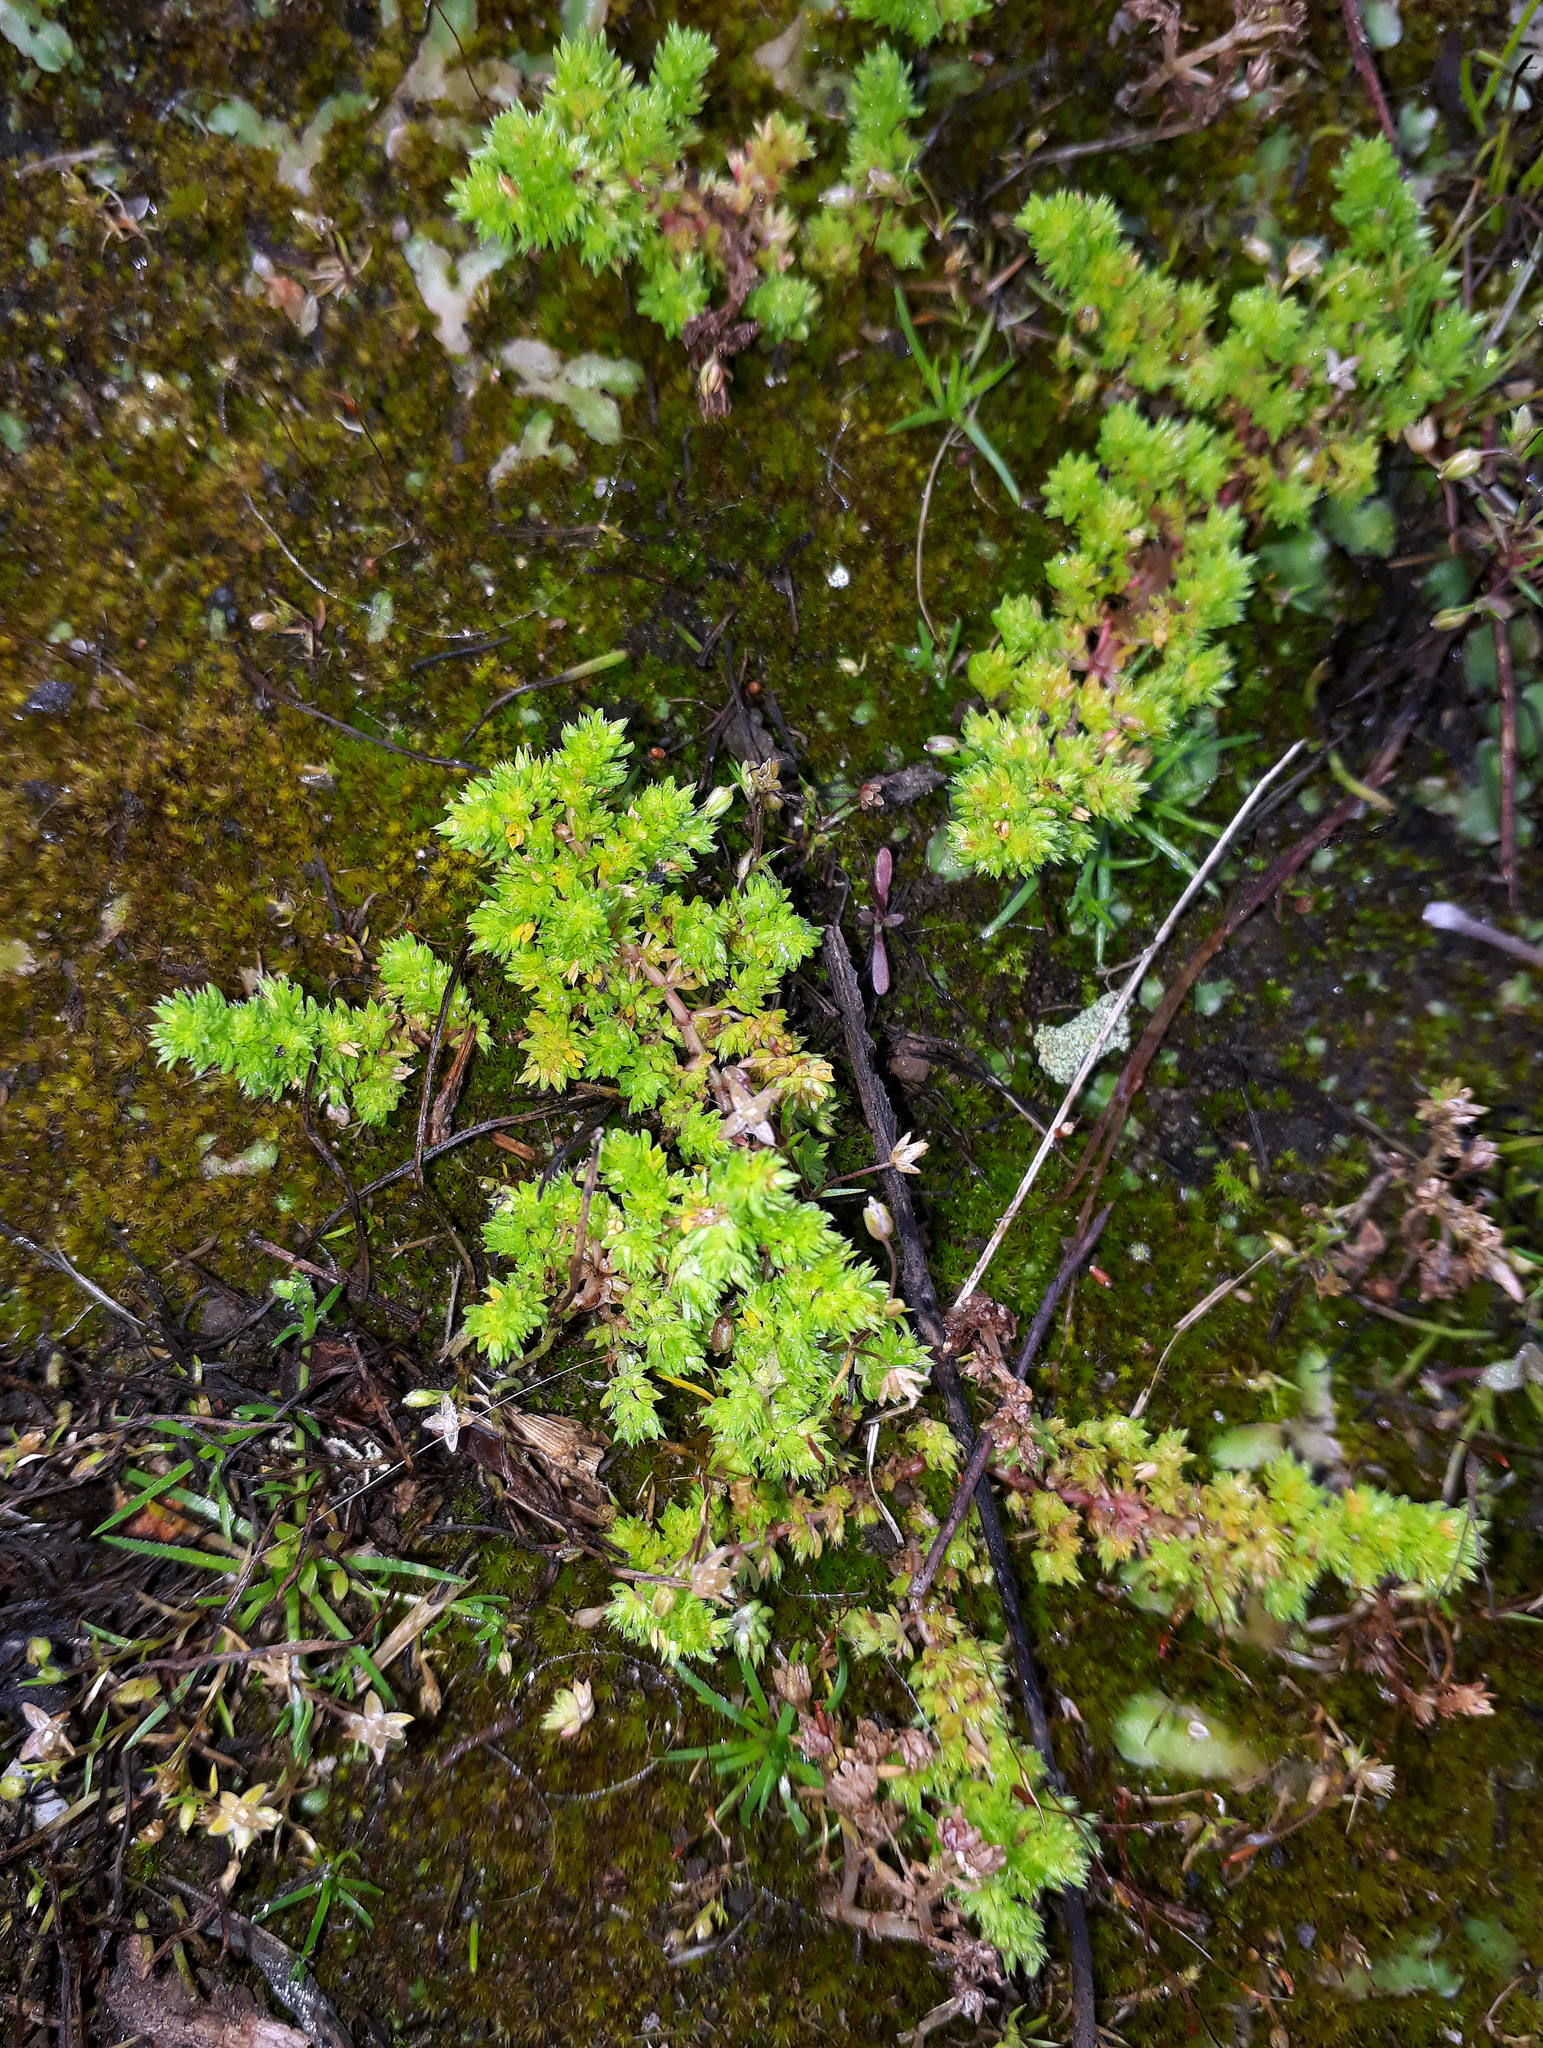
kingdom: Plantae
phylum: Tracheophyta
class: Magnoliopsida
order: Saxifragales
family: Crassulaceae
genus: Crassula
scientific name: Crassula alata
